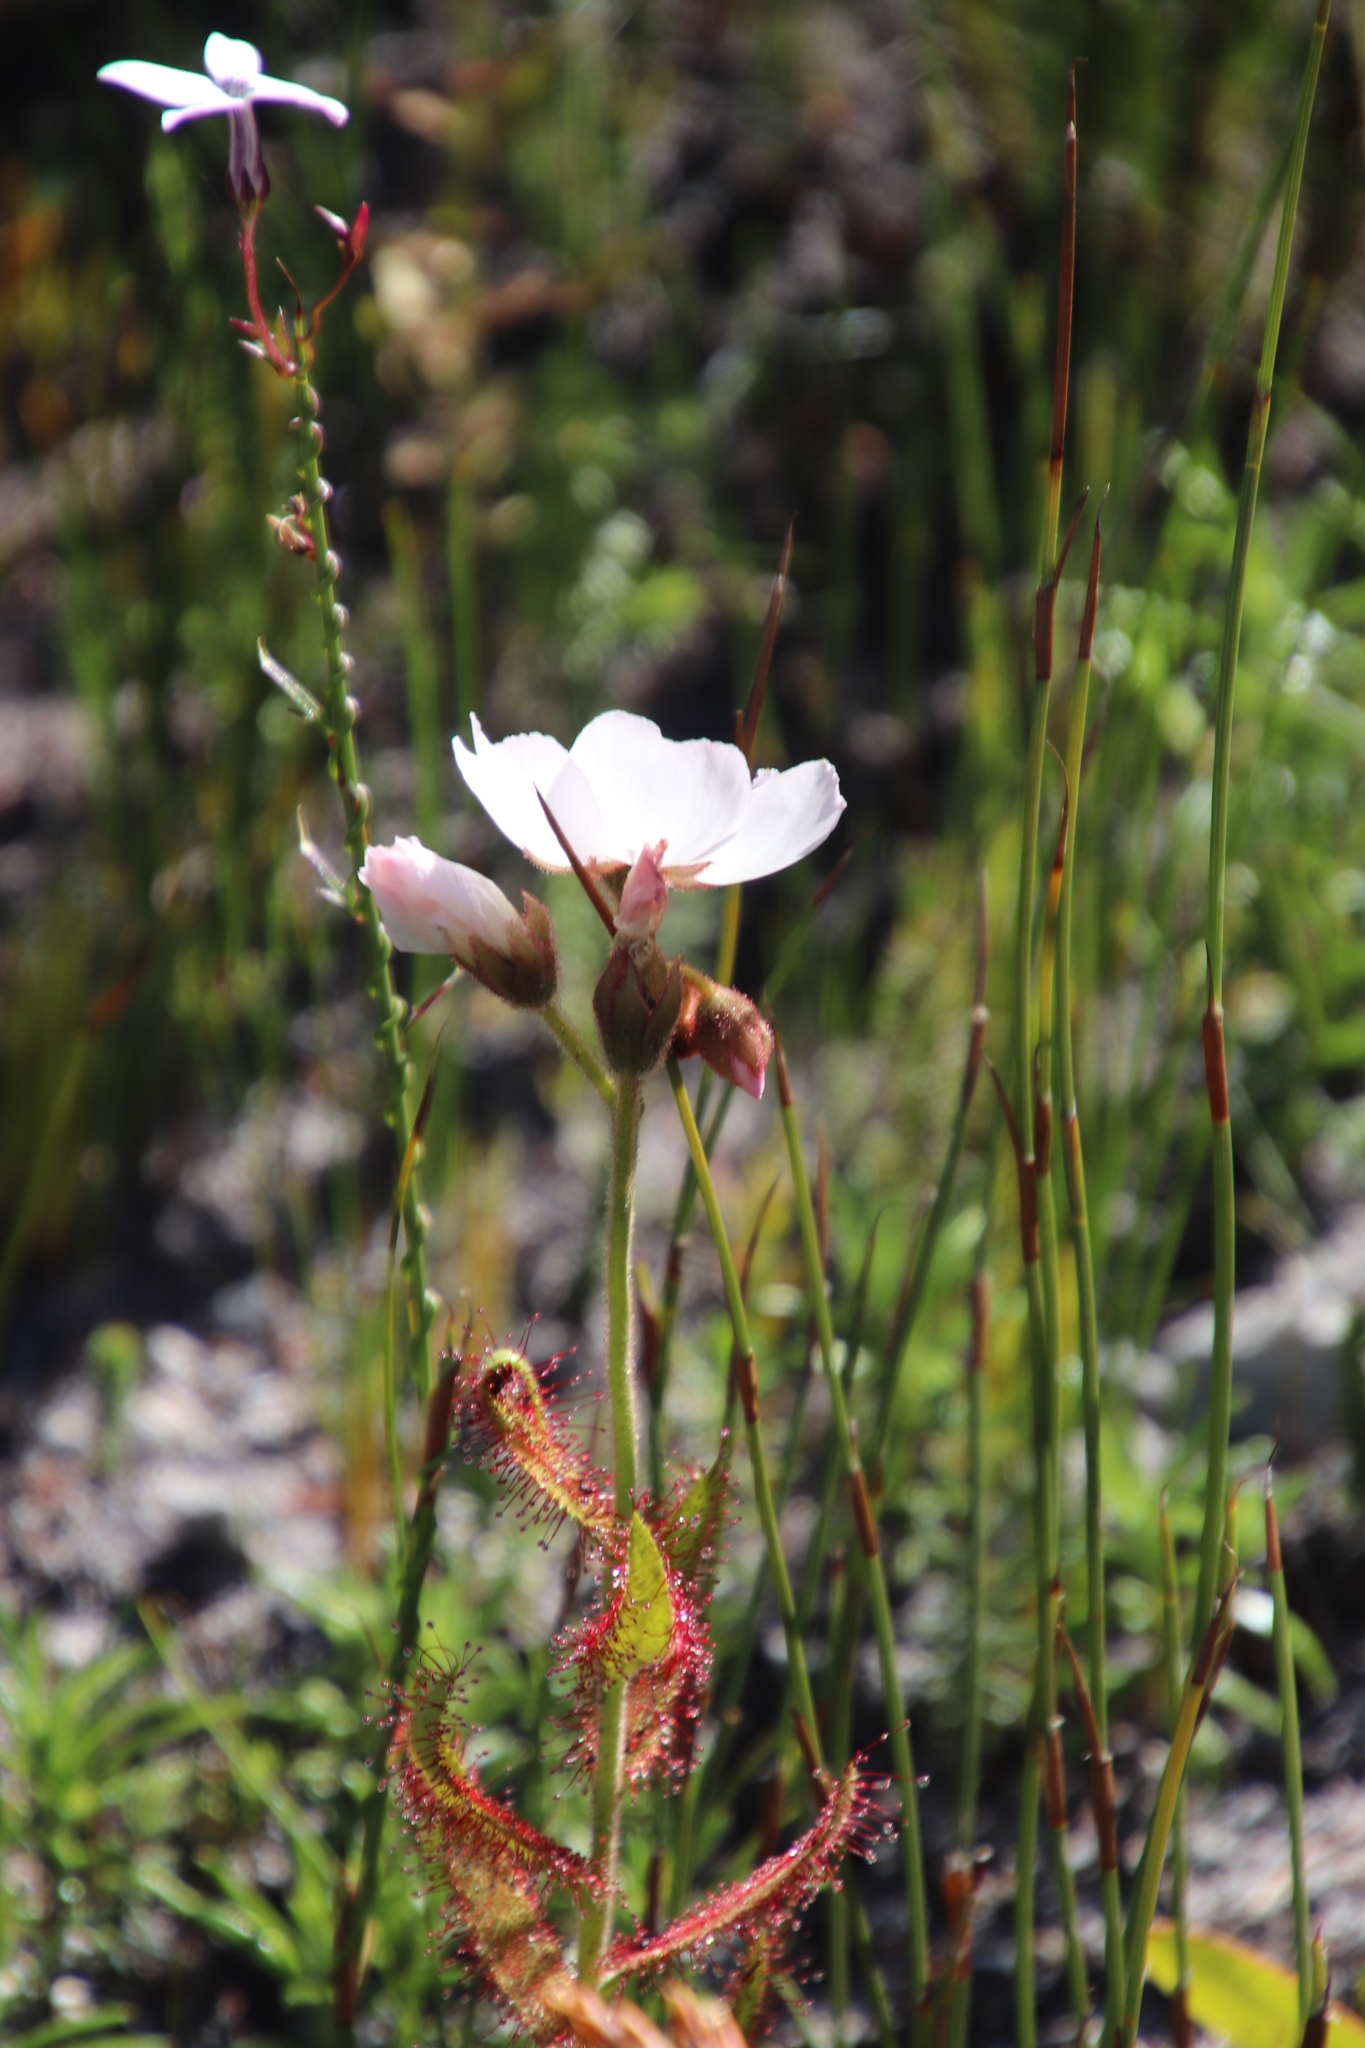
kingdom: Plantae
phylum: Tracheophyta
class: Magnoliopsida
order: Caryophyllales
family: Droseraceae
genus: Drosera
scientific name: Drosera cistiflora
